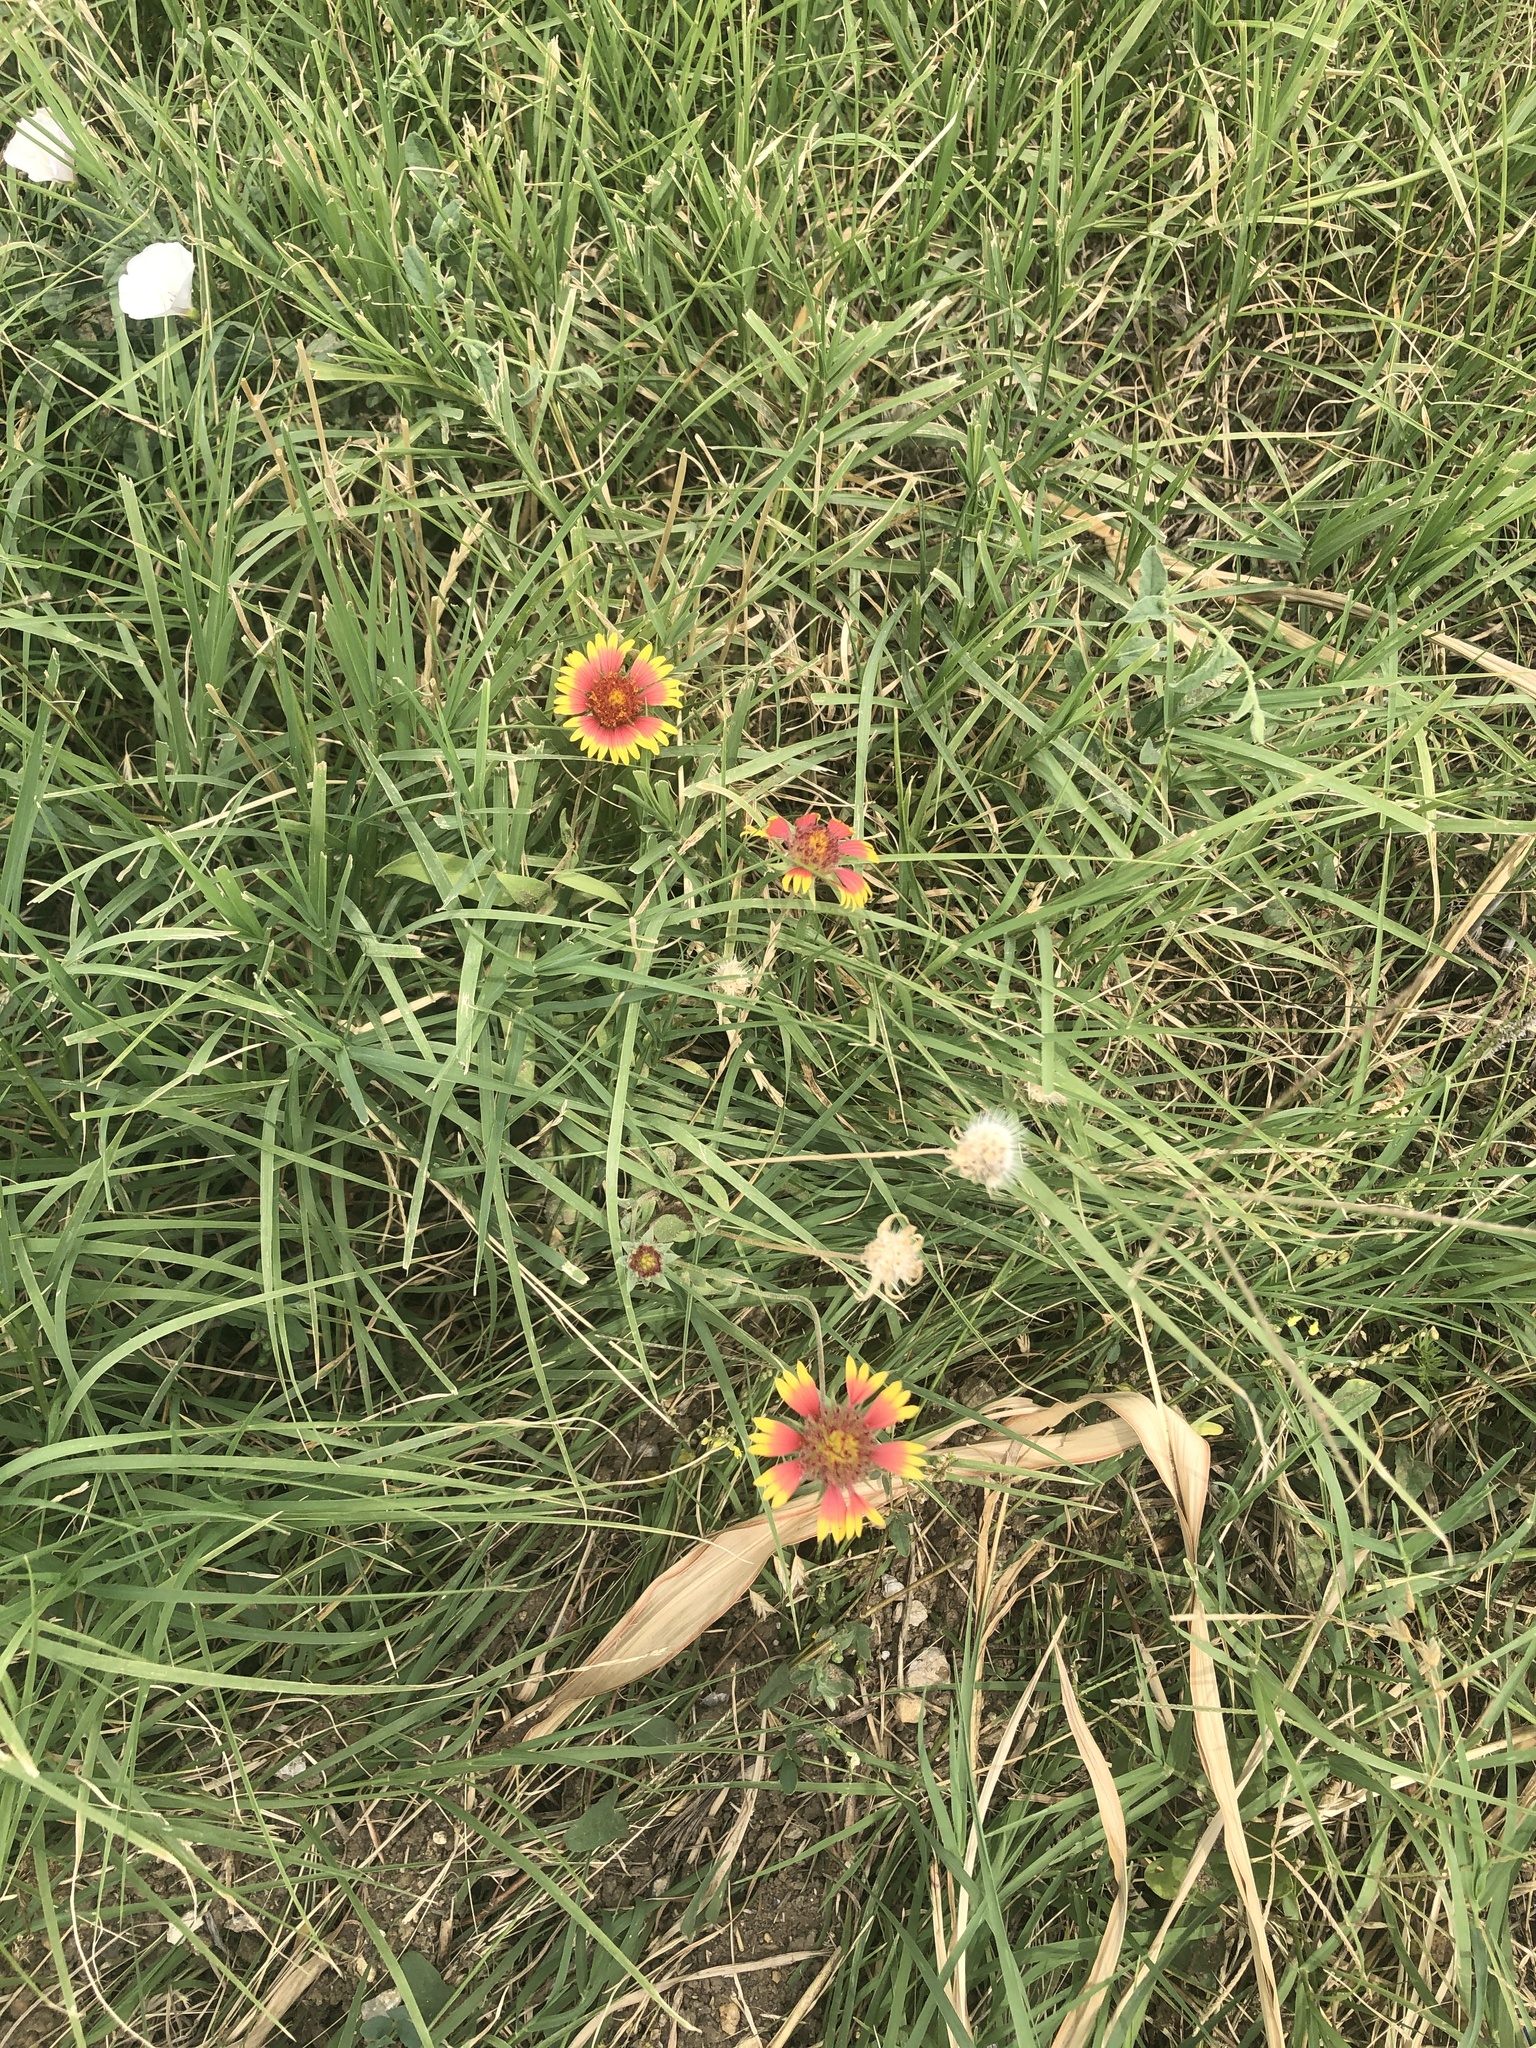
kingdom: Plantae
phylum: Tracheophyta
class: Magnoliopsida
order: Asterales
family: Asteraceae
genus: Gaillardia
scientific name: Gaillardia pulchella
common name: Firewheel
